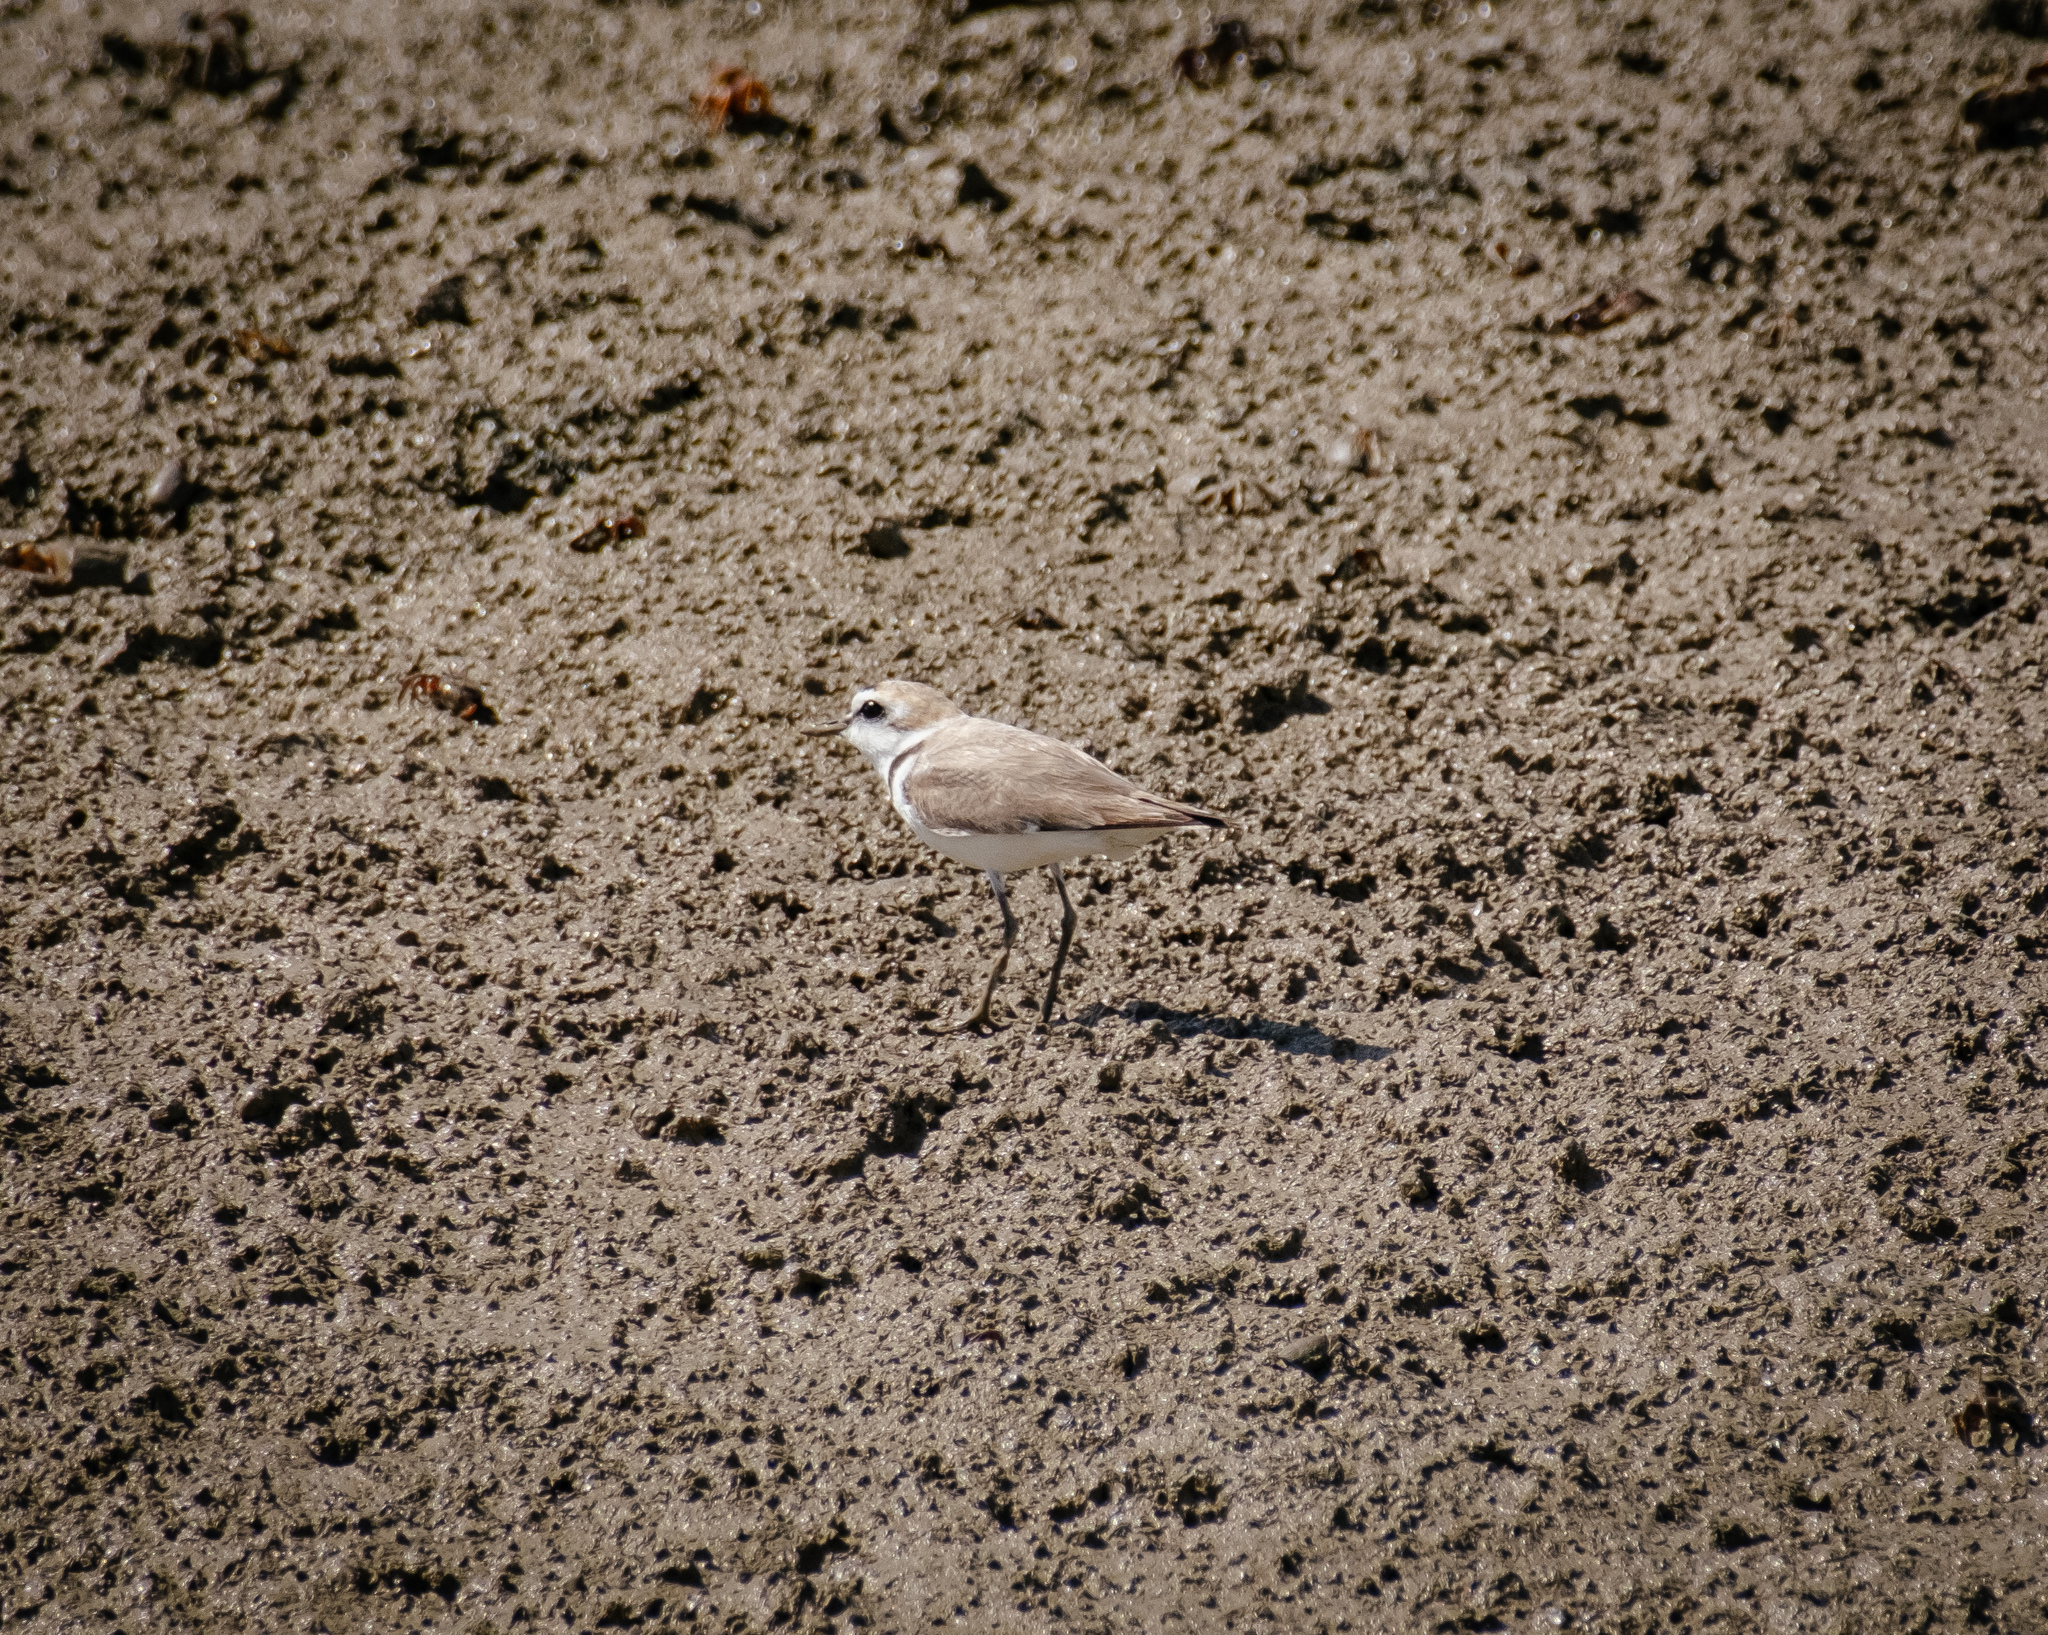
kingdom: Animalia
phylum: Chordata
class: Aves
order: Charadriiformes
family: Charadriidae
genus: Charadrius
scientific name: Charadrius alexandrinus
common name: Kentish plover
